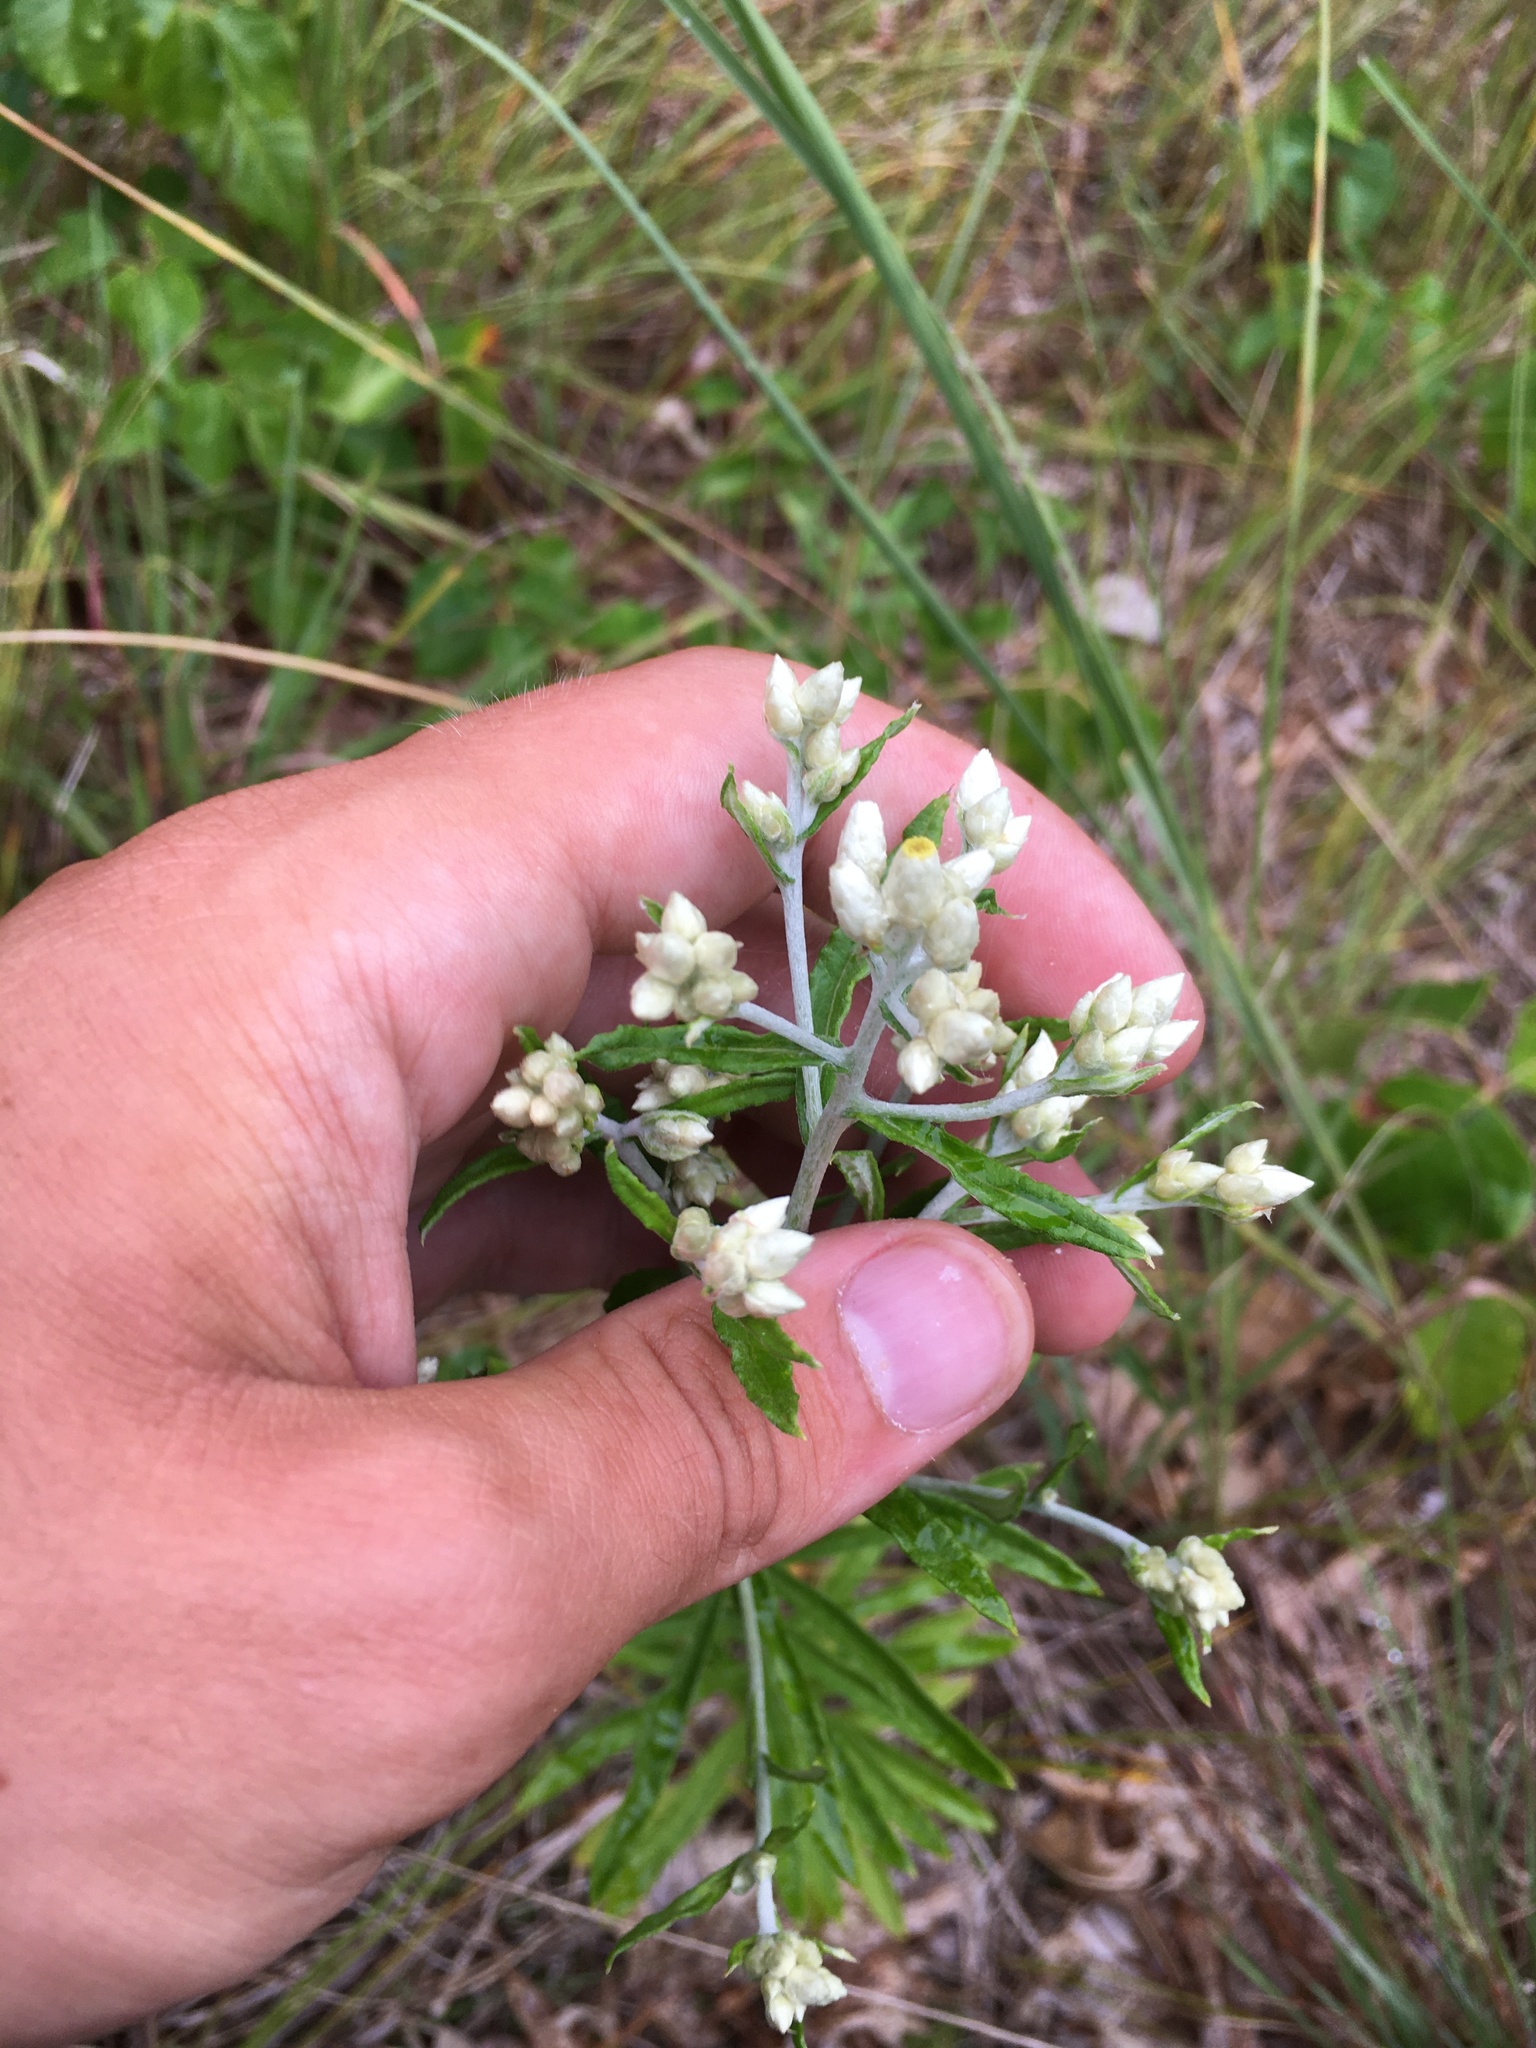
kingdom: Plantae
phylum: Tracheophyta
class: Magnoliopsida
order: Asterales
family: Asteraceae
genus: Pseudognaphalium
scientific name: Pseudognaphalium obtusifolium
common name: Eastern rabbit-tobacco
